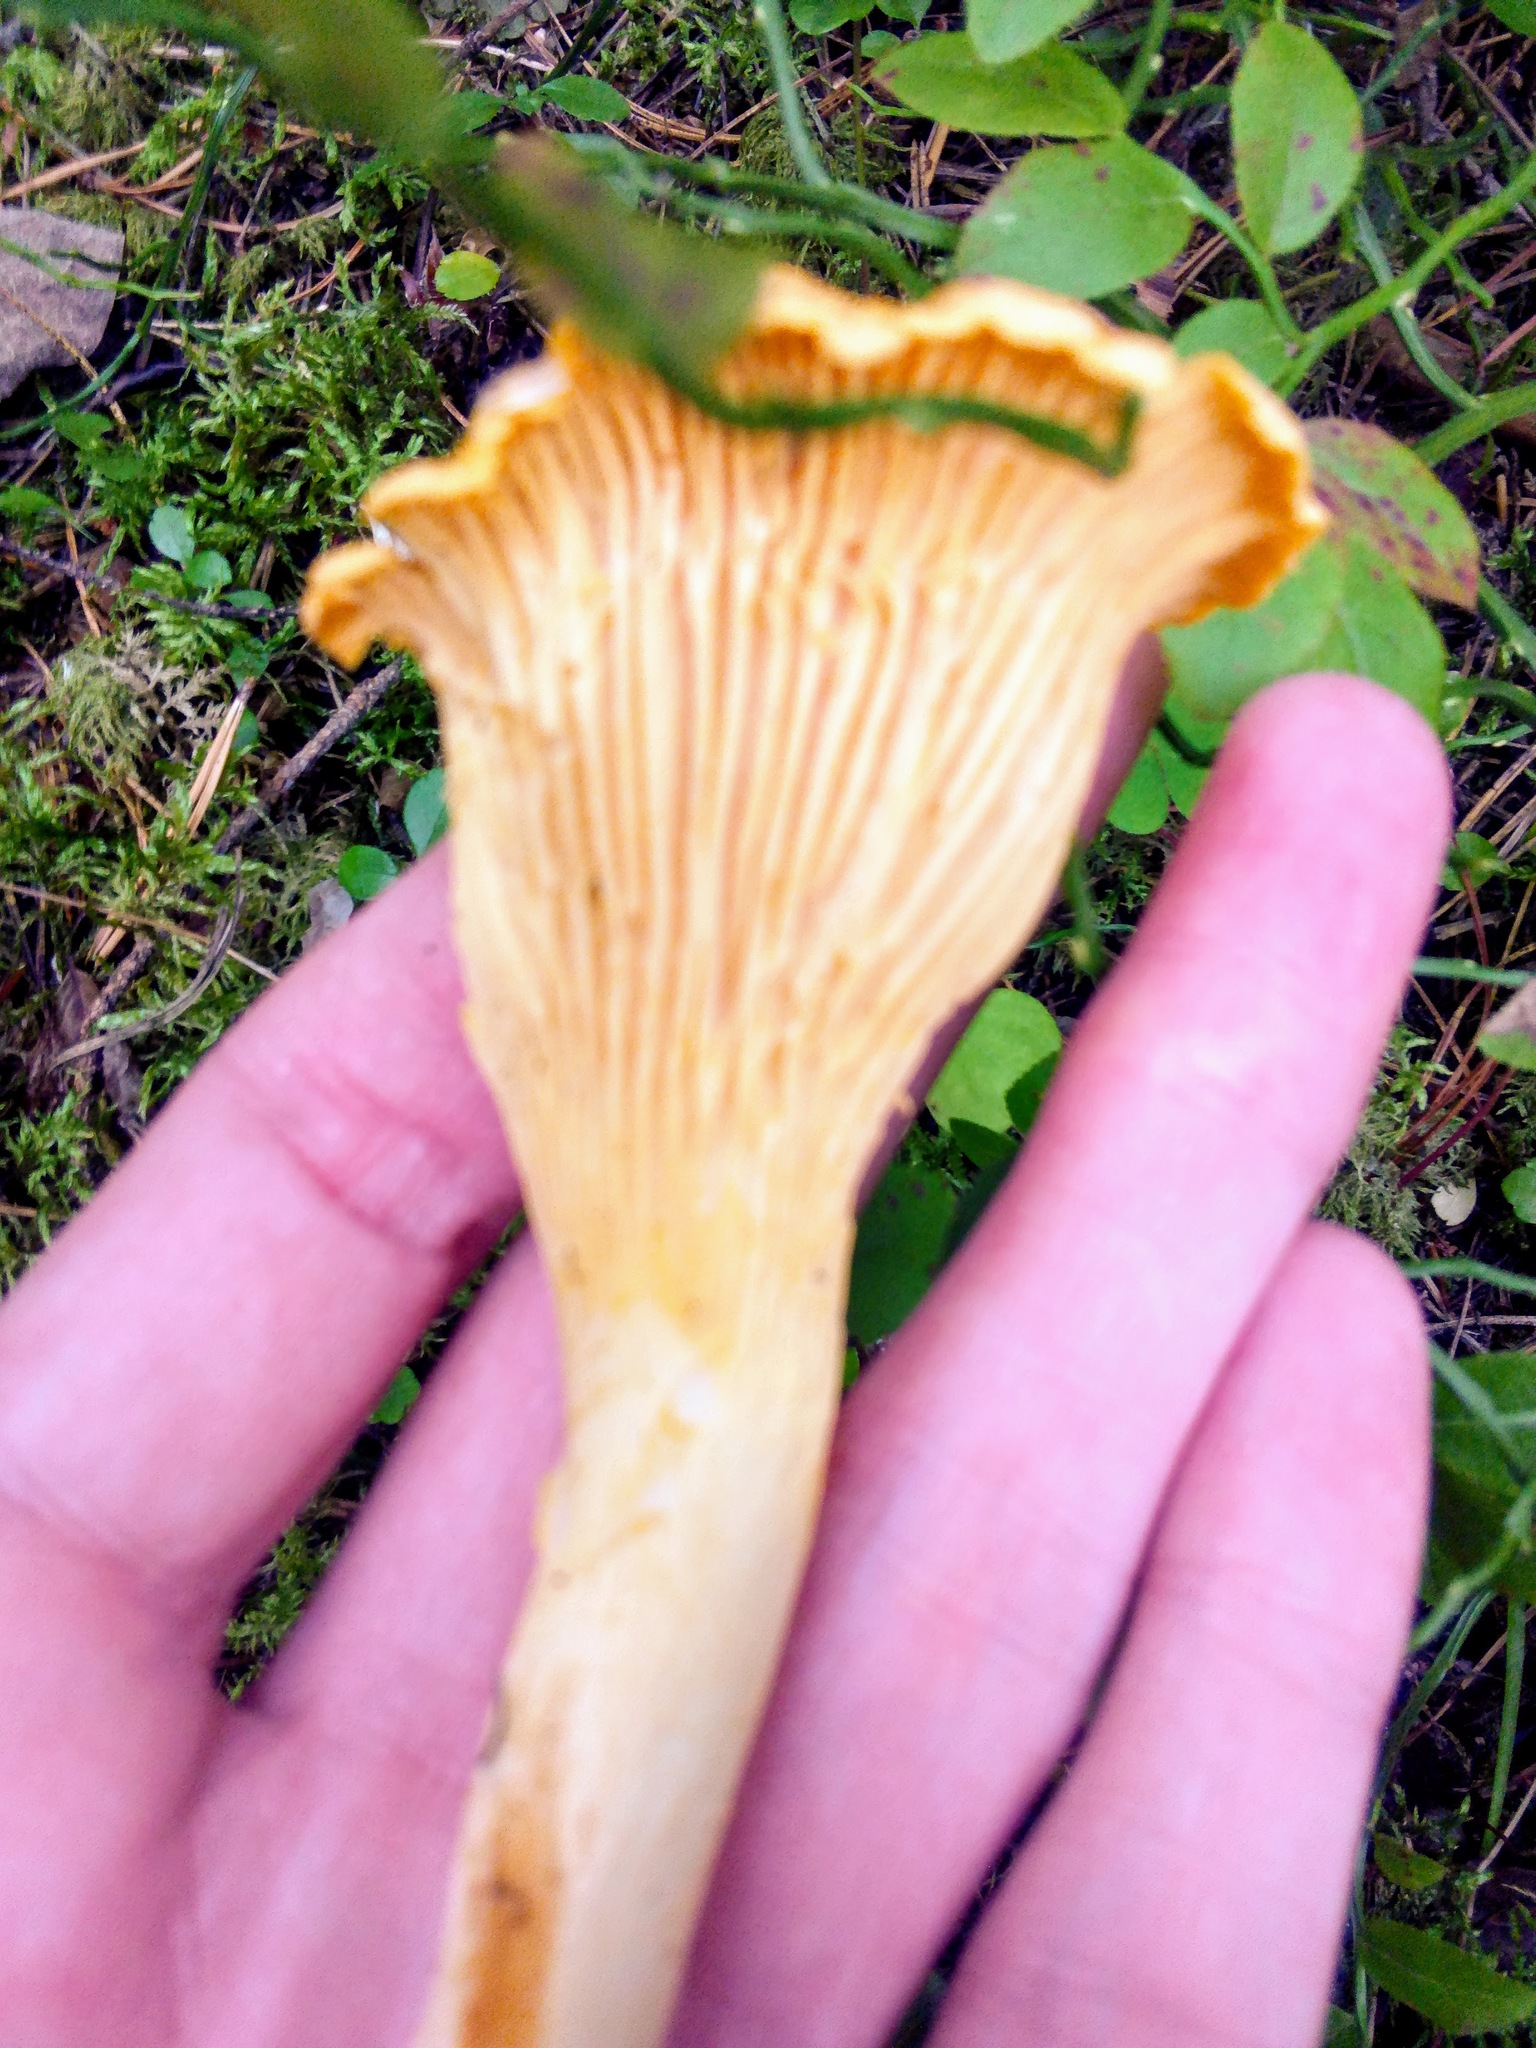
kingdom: Fungi
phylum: Basidiomycota
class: Agaricomycetes
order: Cantharellales
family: Hydnaceae
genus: Cantharellus
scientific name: Cantharellus cibarius
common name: Chanterelle
